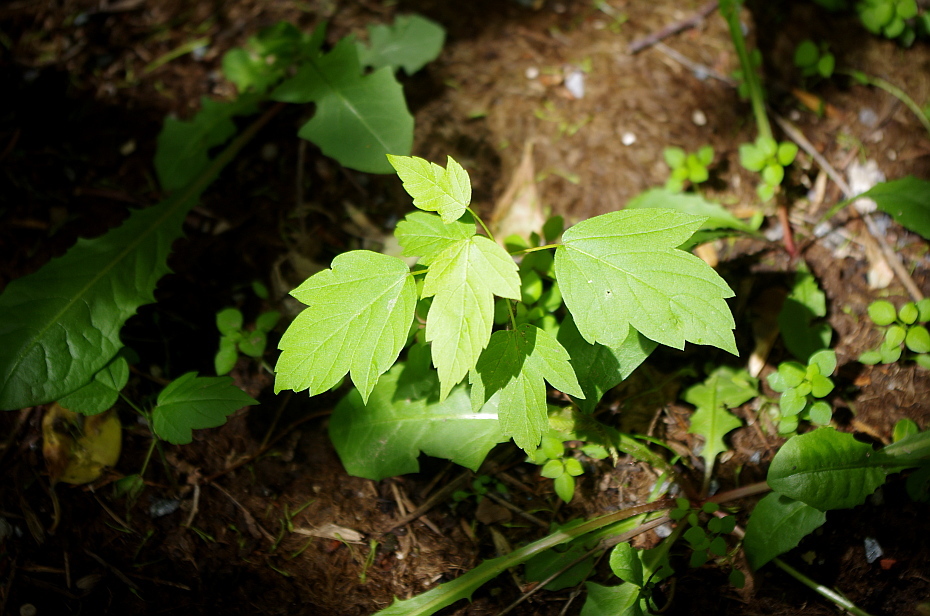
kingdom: Plantae
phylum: Tracheophyta
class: Magnoliopsida
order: Sapindales
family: Sapindaceae
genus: Acer
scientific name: Acer negundo
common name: Ashleaf maple
